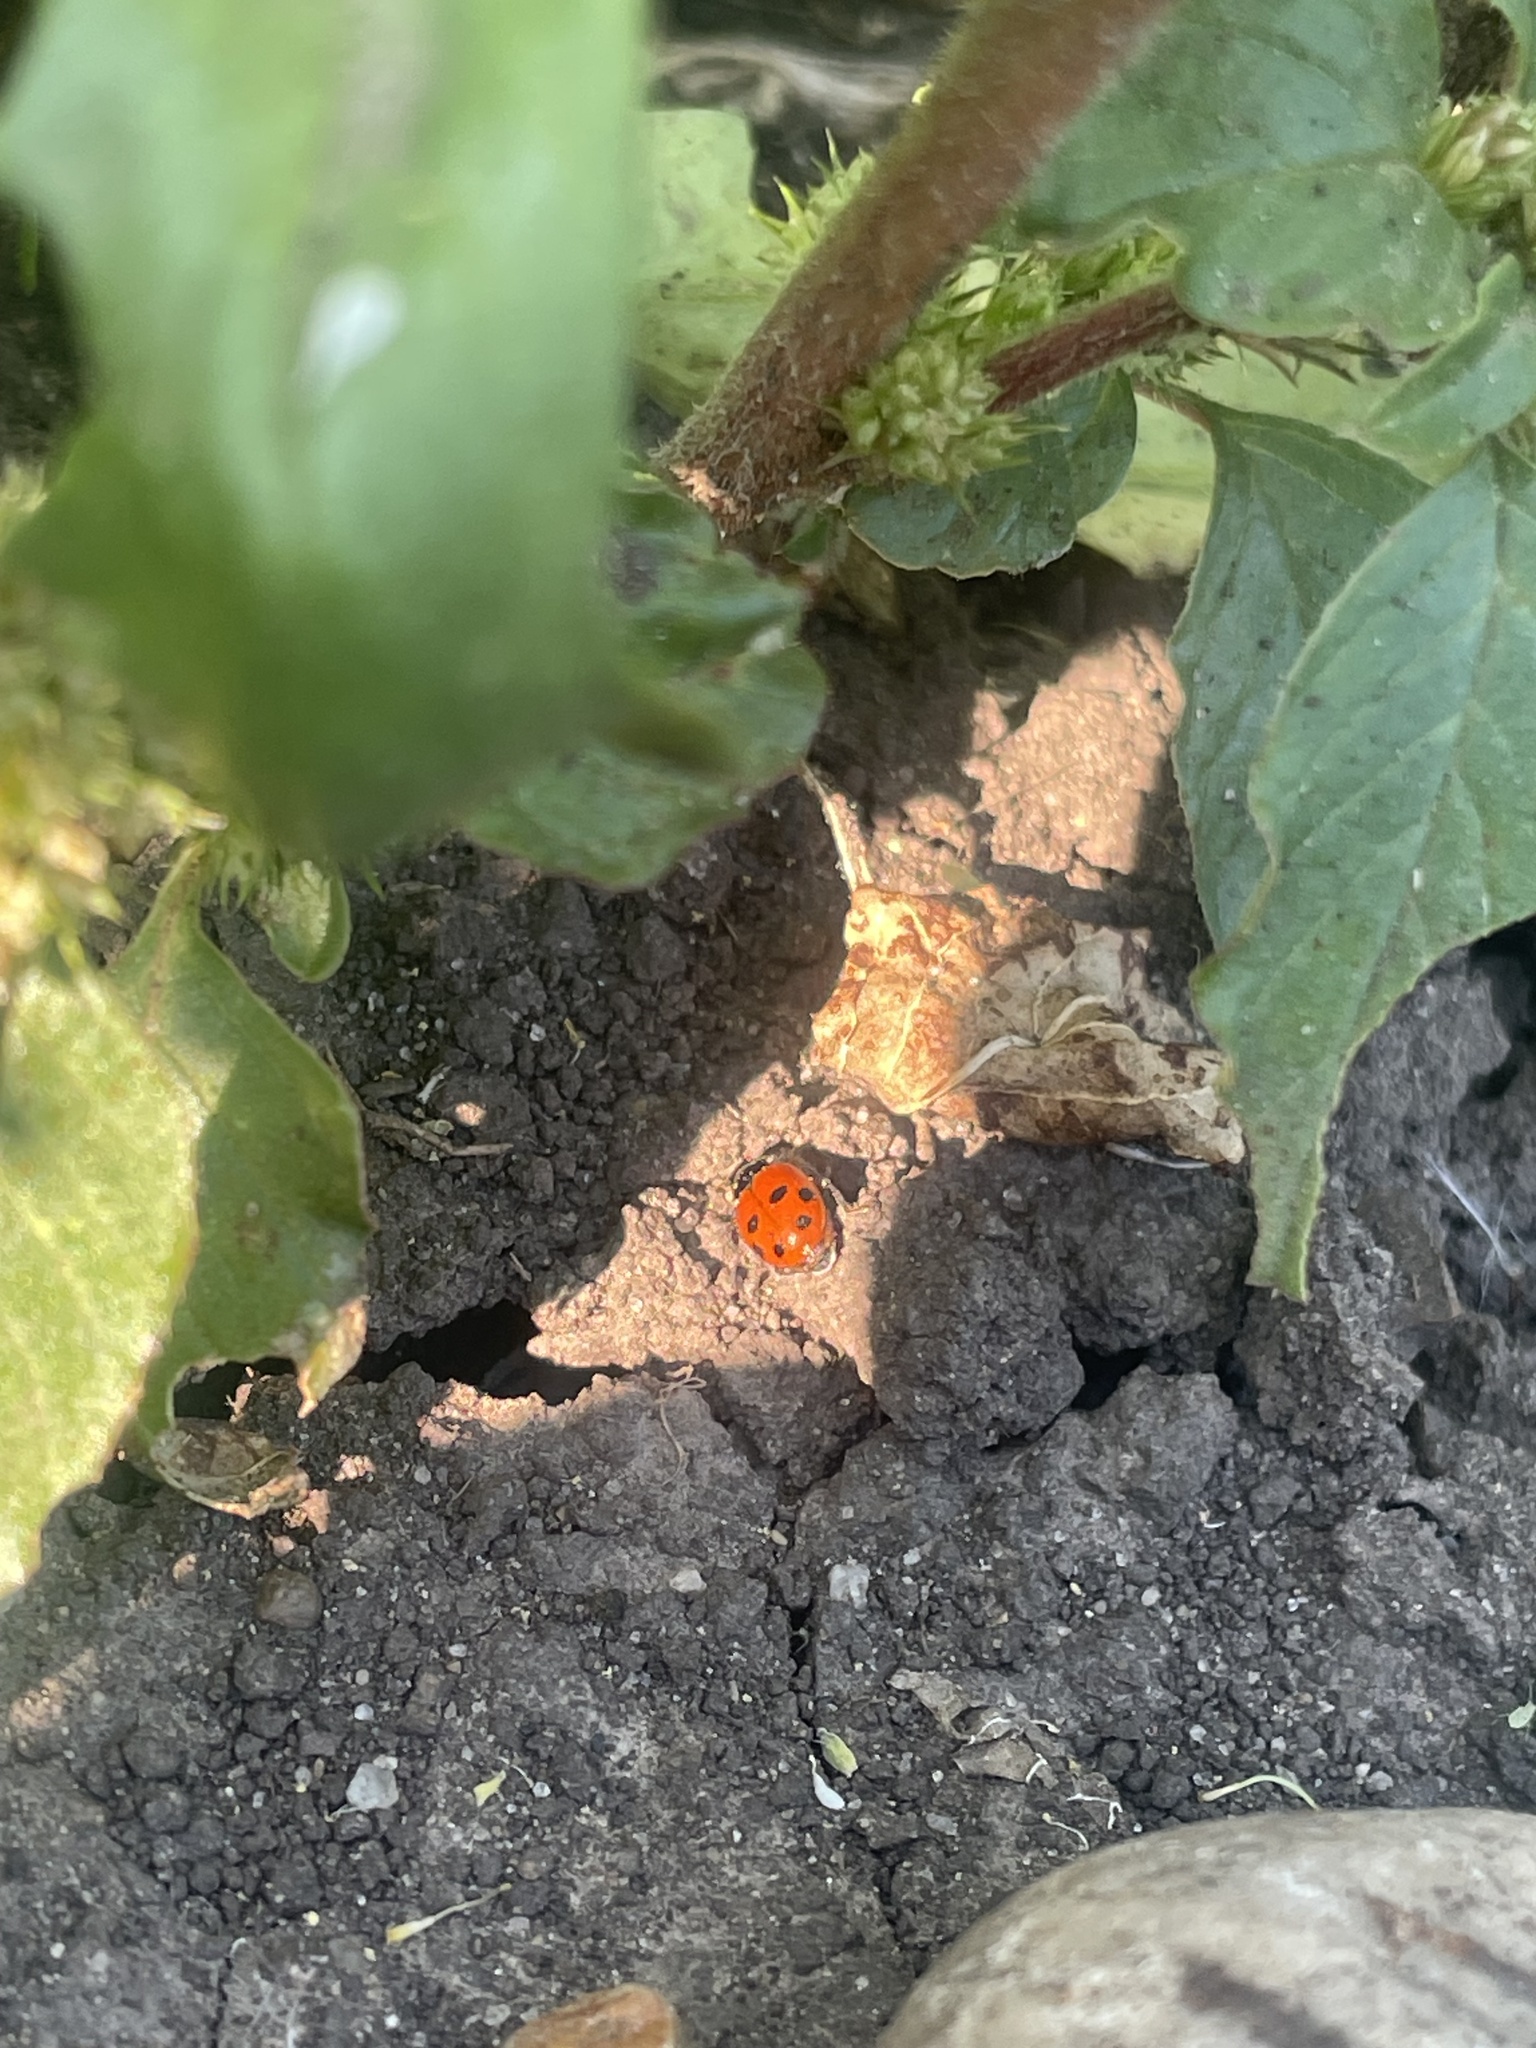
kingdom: Animalia
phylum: Arthropoda
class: Insecta
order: Coleoptera
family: Coccinellidae
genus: Hippodamia
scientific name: Hippodamia variegata
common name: Ladybird beetle
